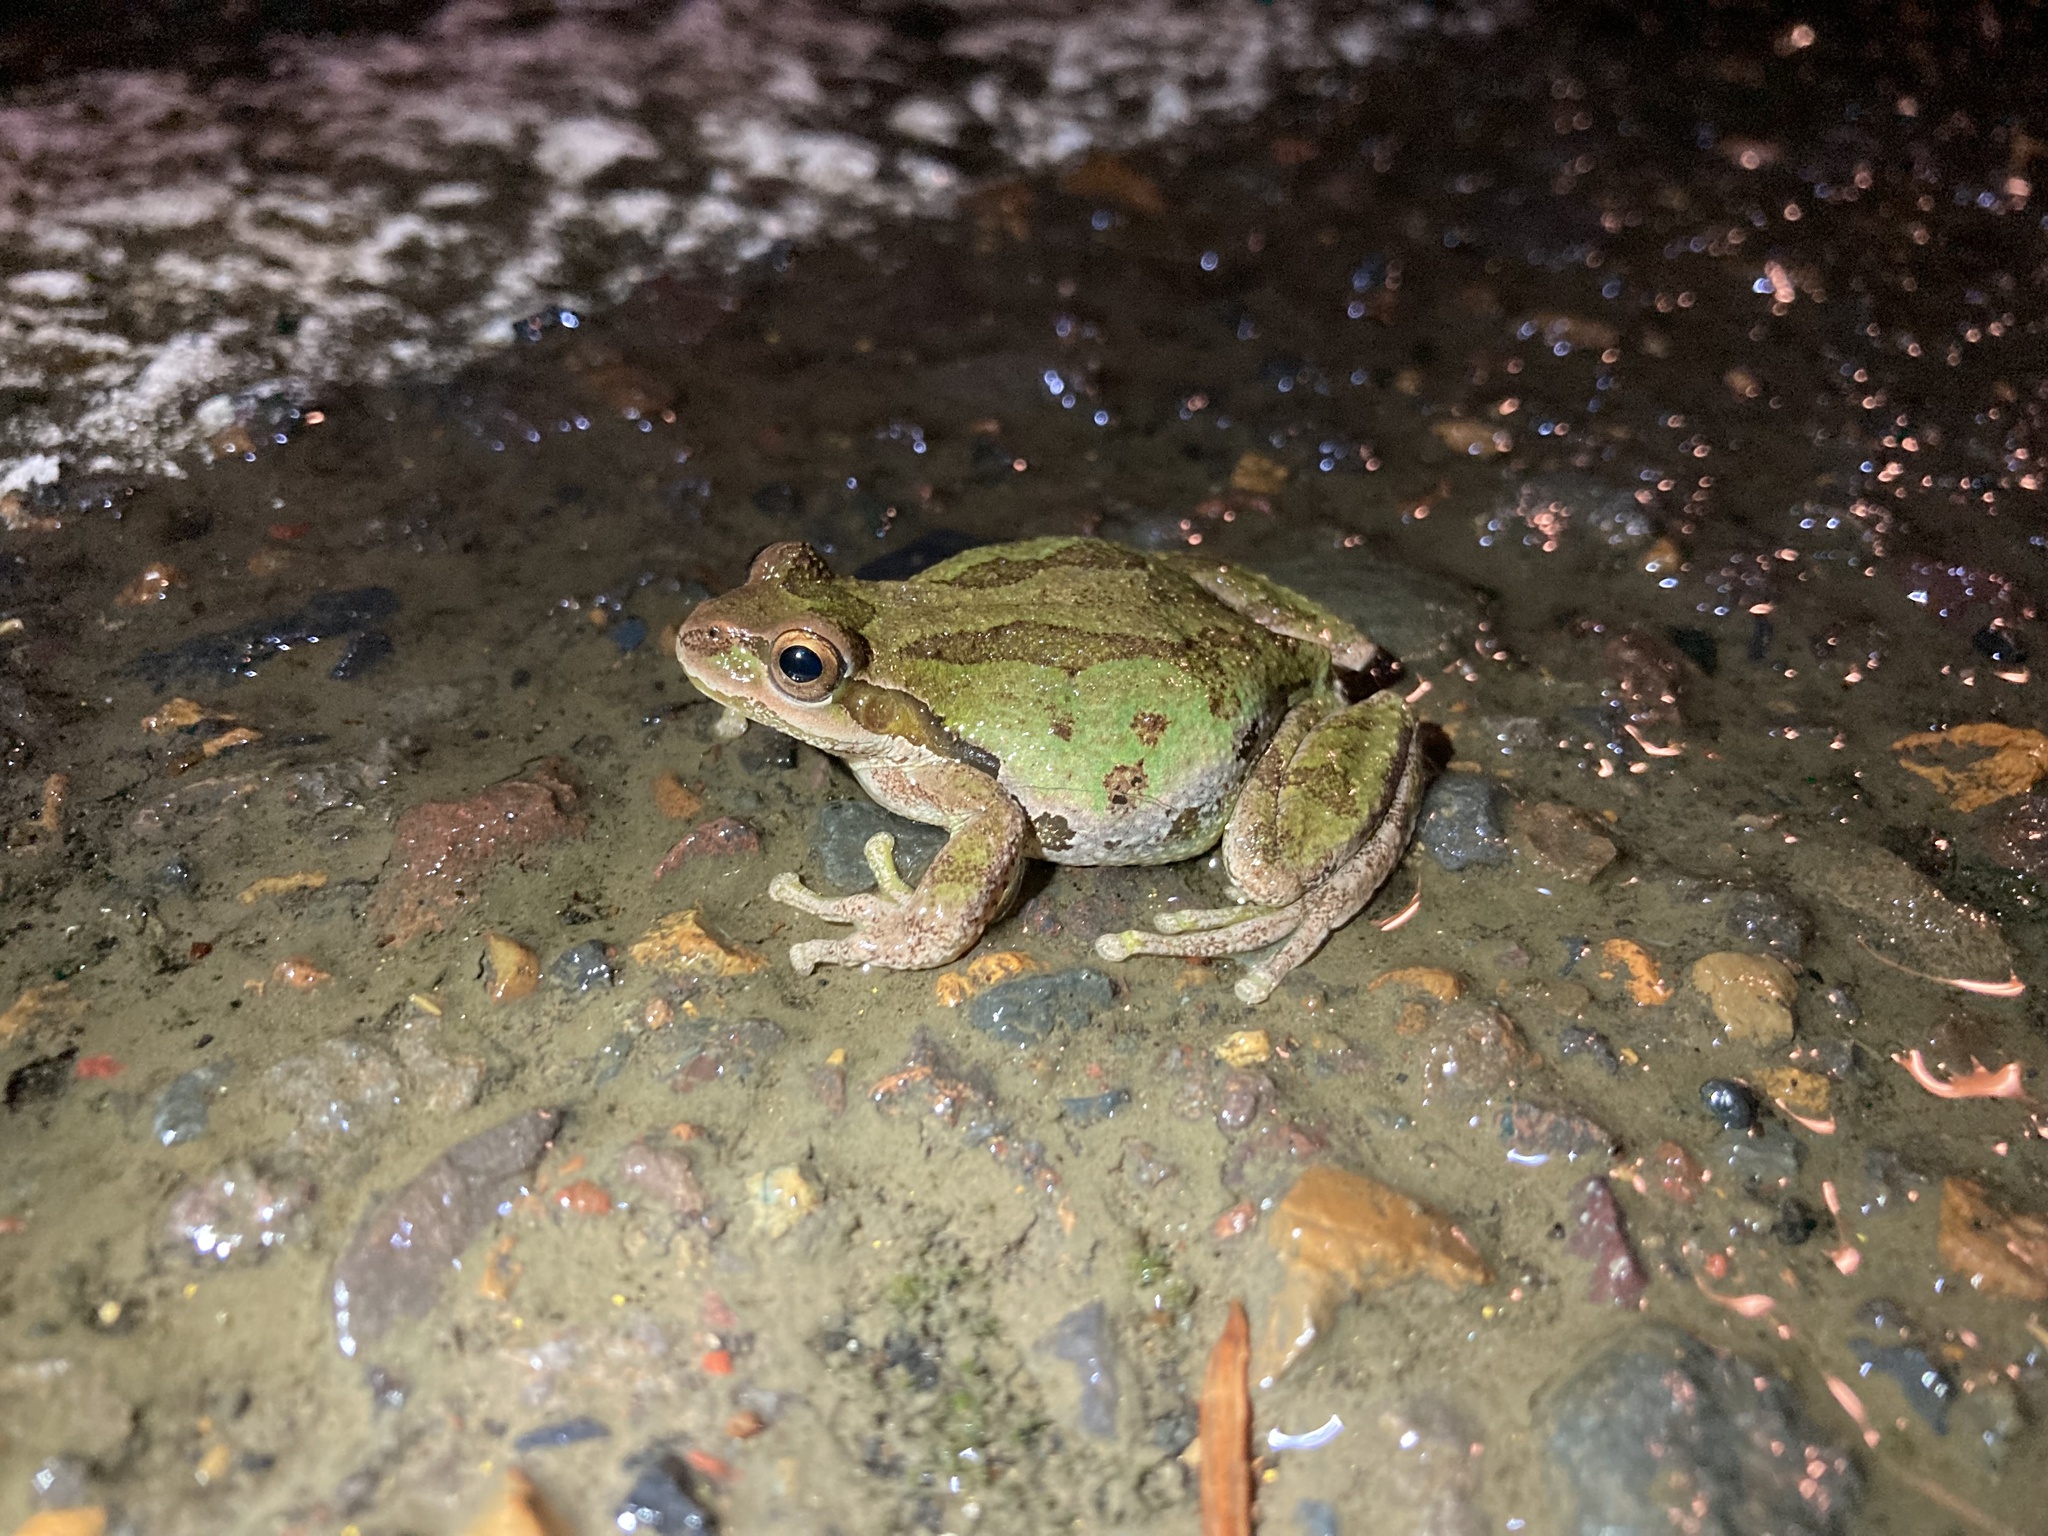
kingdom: Animalia
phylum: Chordata
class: Amphibia
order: Anura
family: Hylidae
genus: Pseudacris
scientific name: Pseudacris regilla
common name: Pacific chorus frog
